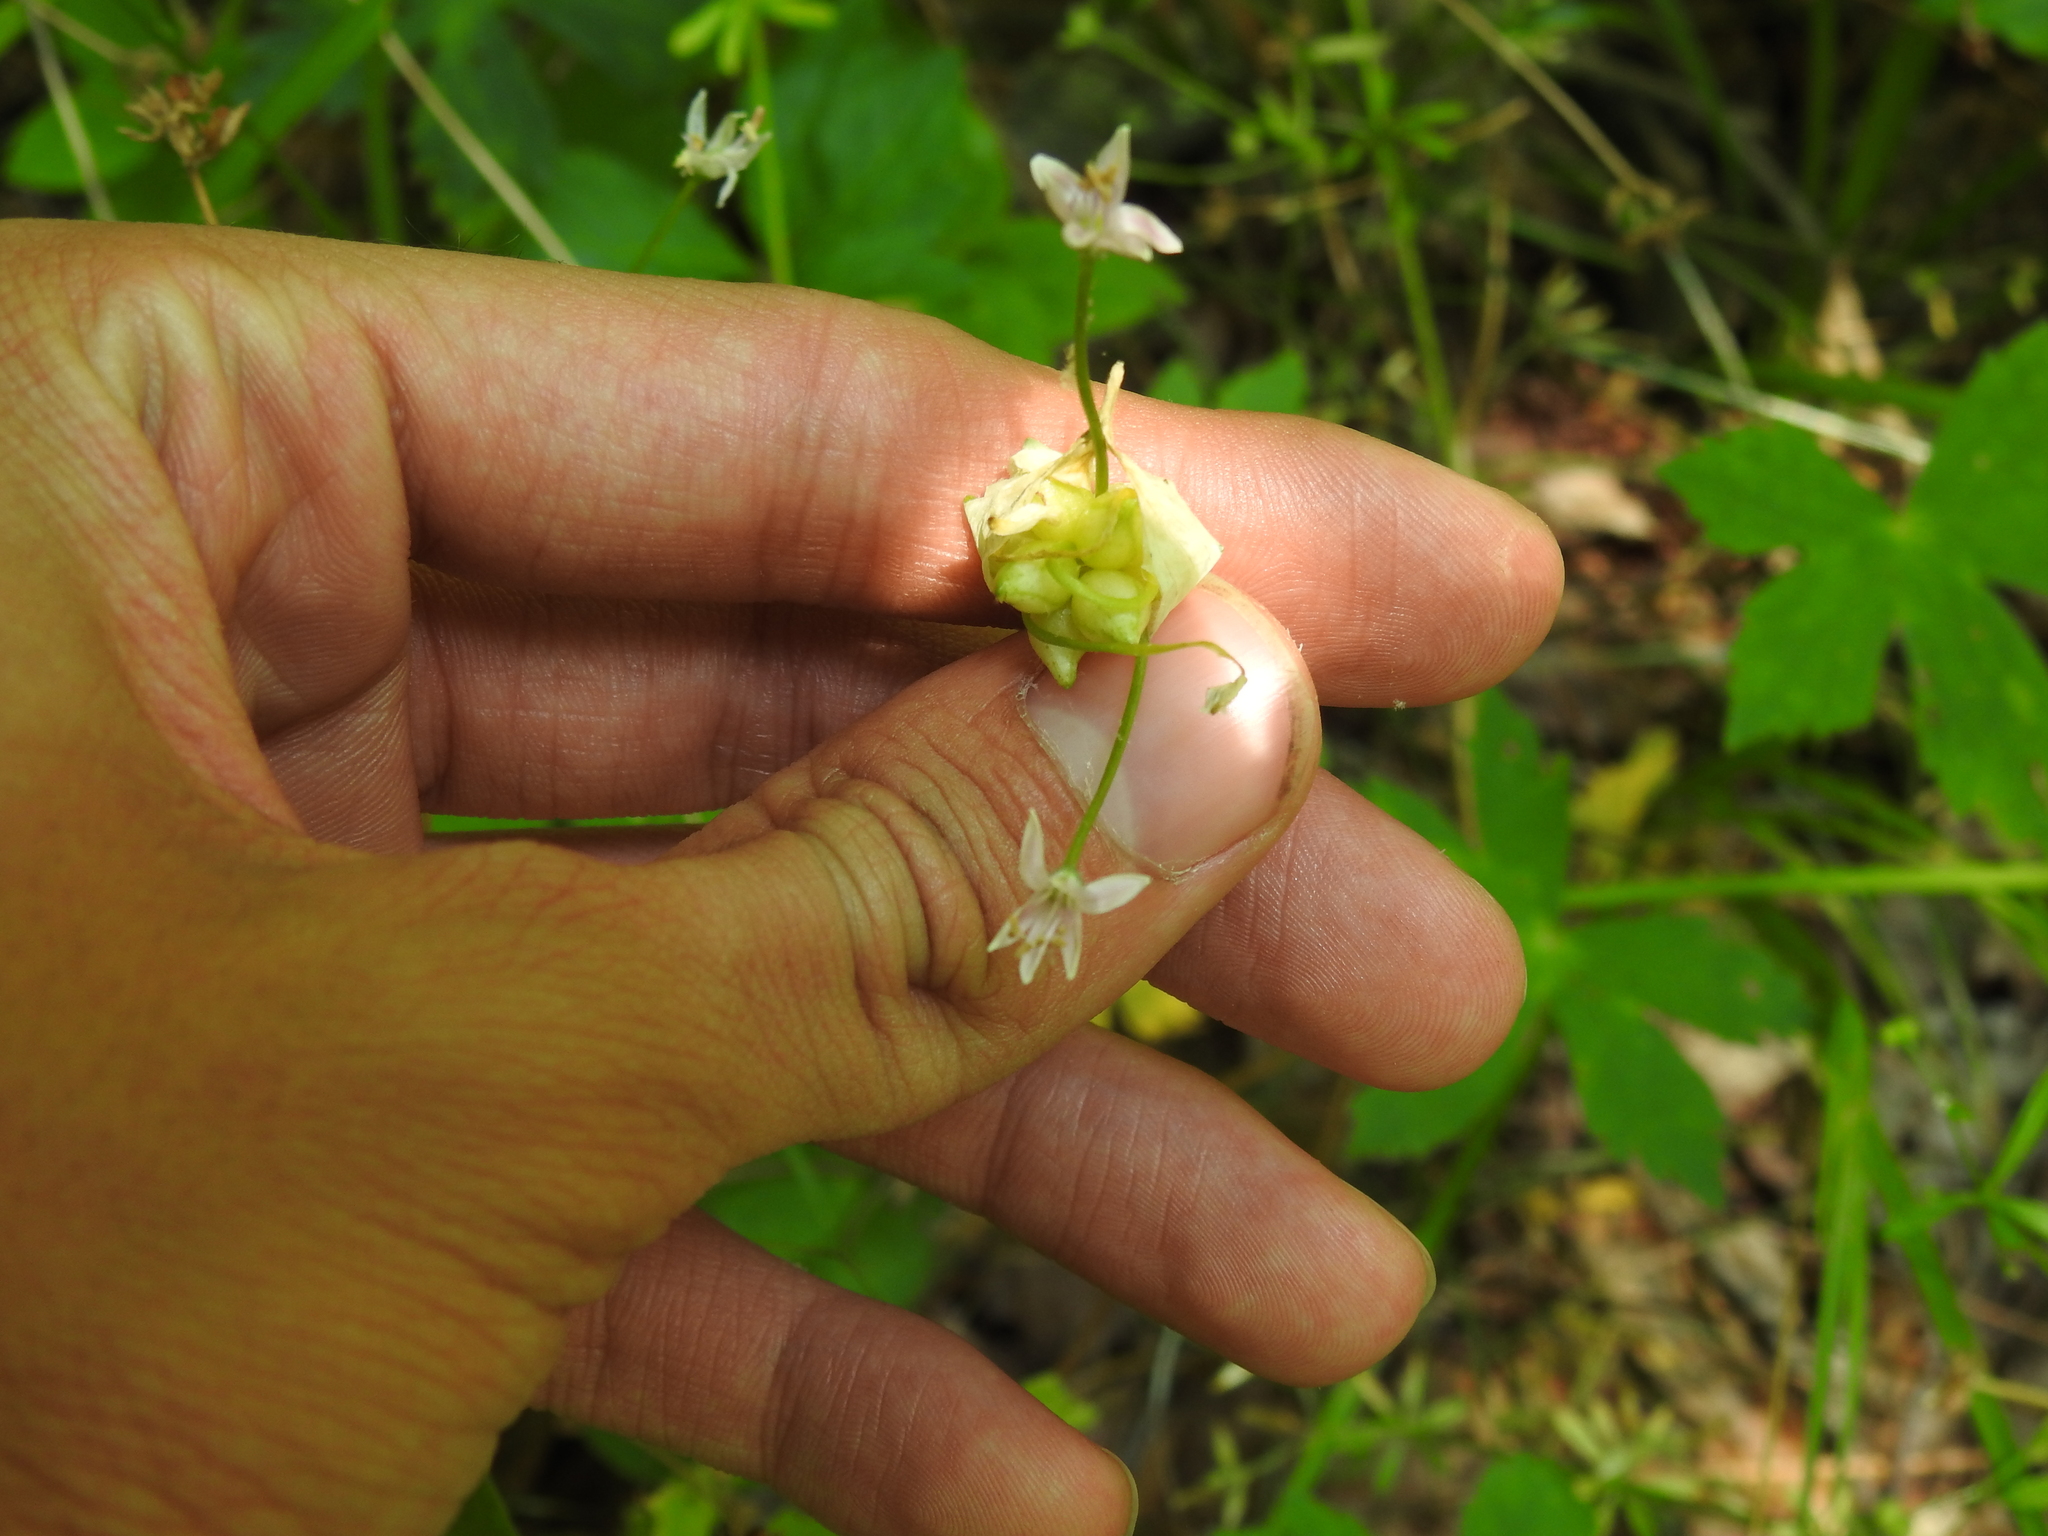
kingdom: Plantae
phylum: Tracheophyta
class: Liliopsida
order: Asparagales
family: Amaryllidaceae
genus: Allium
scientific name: Allium canadense
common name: Meadow garlic
